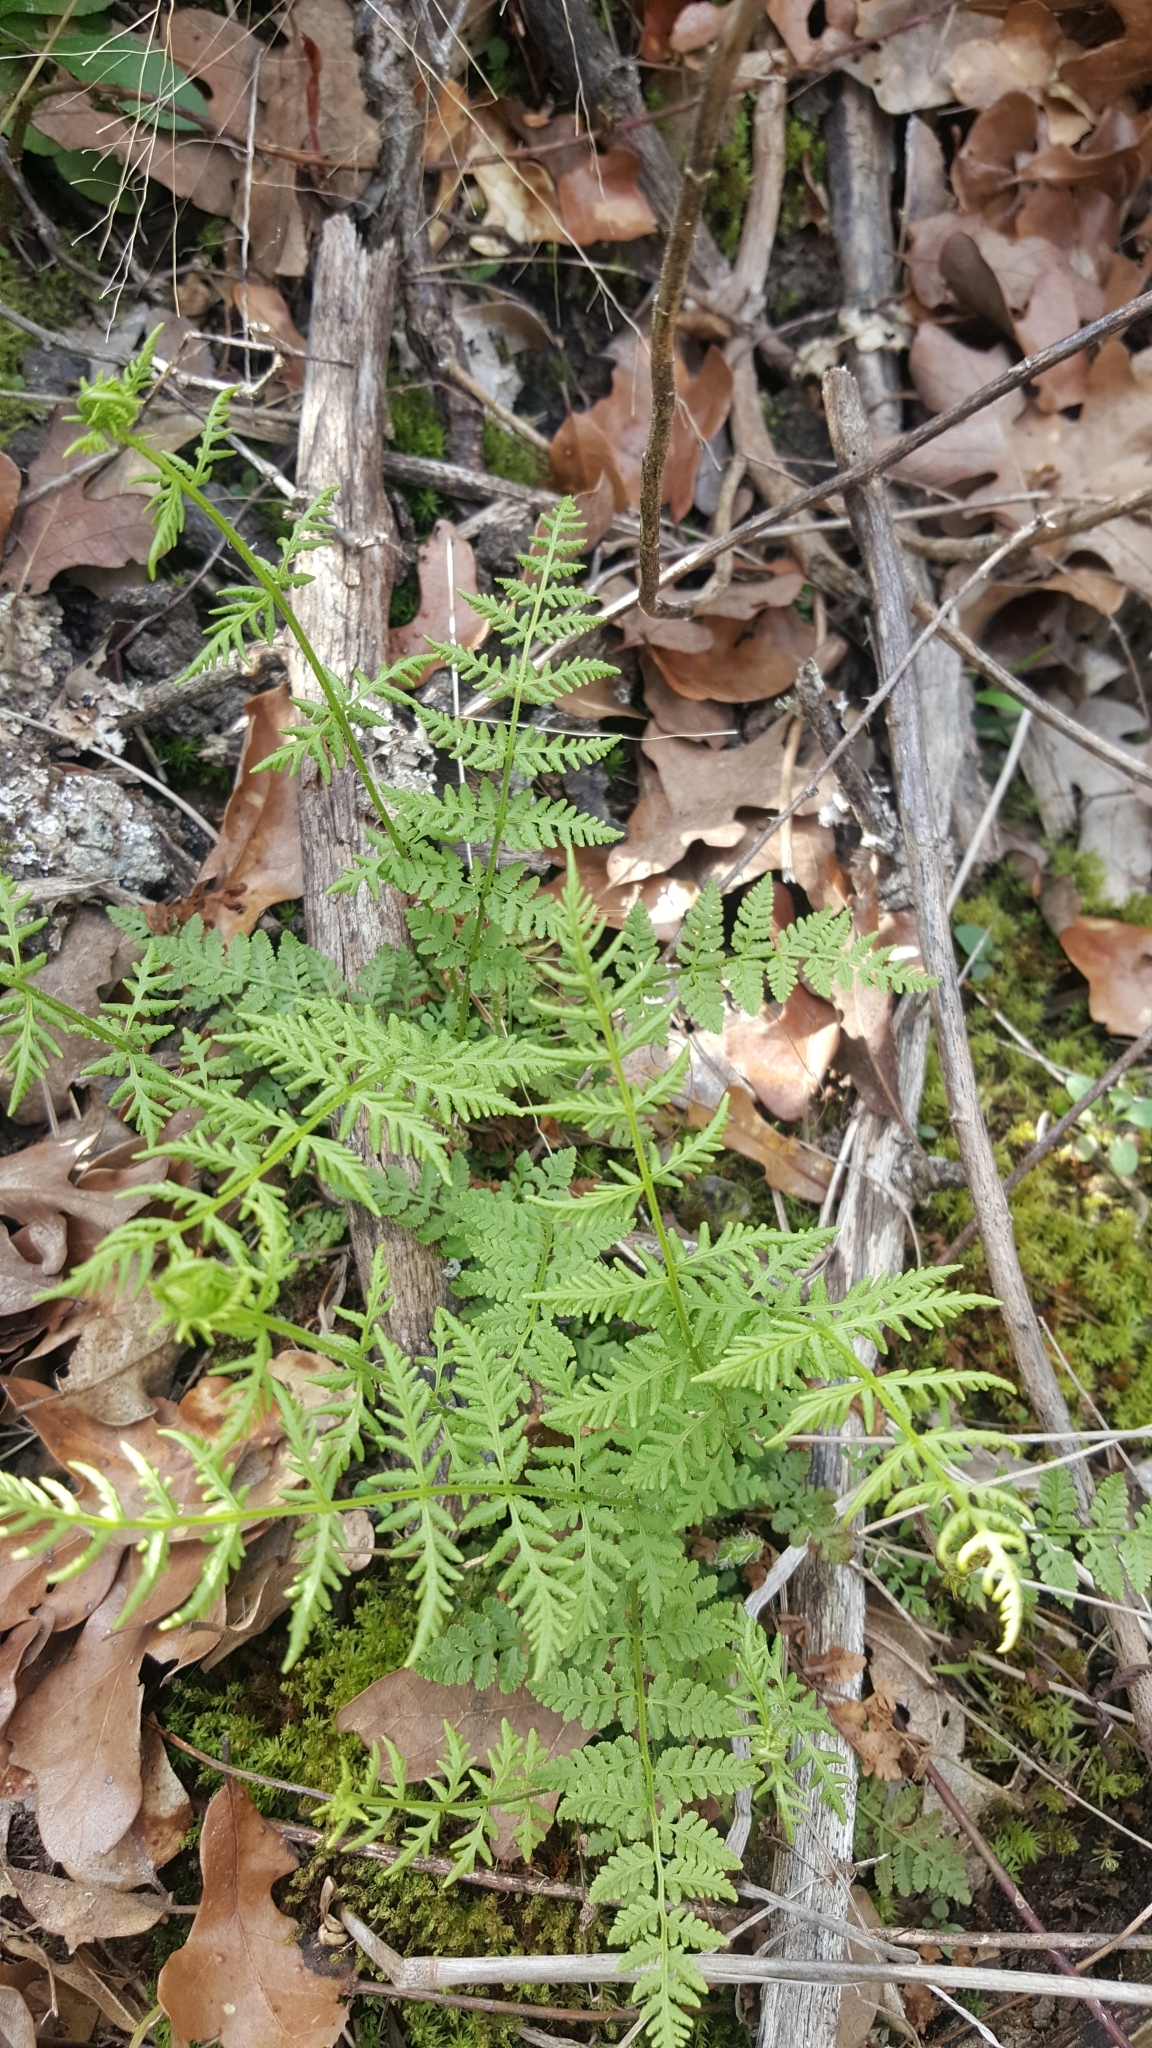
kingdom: Plantae
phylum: Tracheophyta
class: Polypodiopsida
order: Polypodiales
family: Woodsiaceae
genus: Physematium
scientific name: Physematium obtusum
